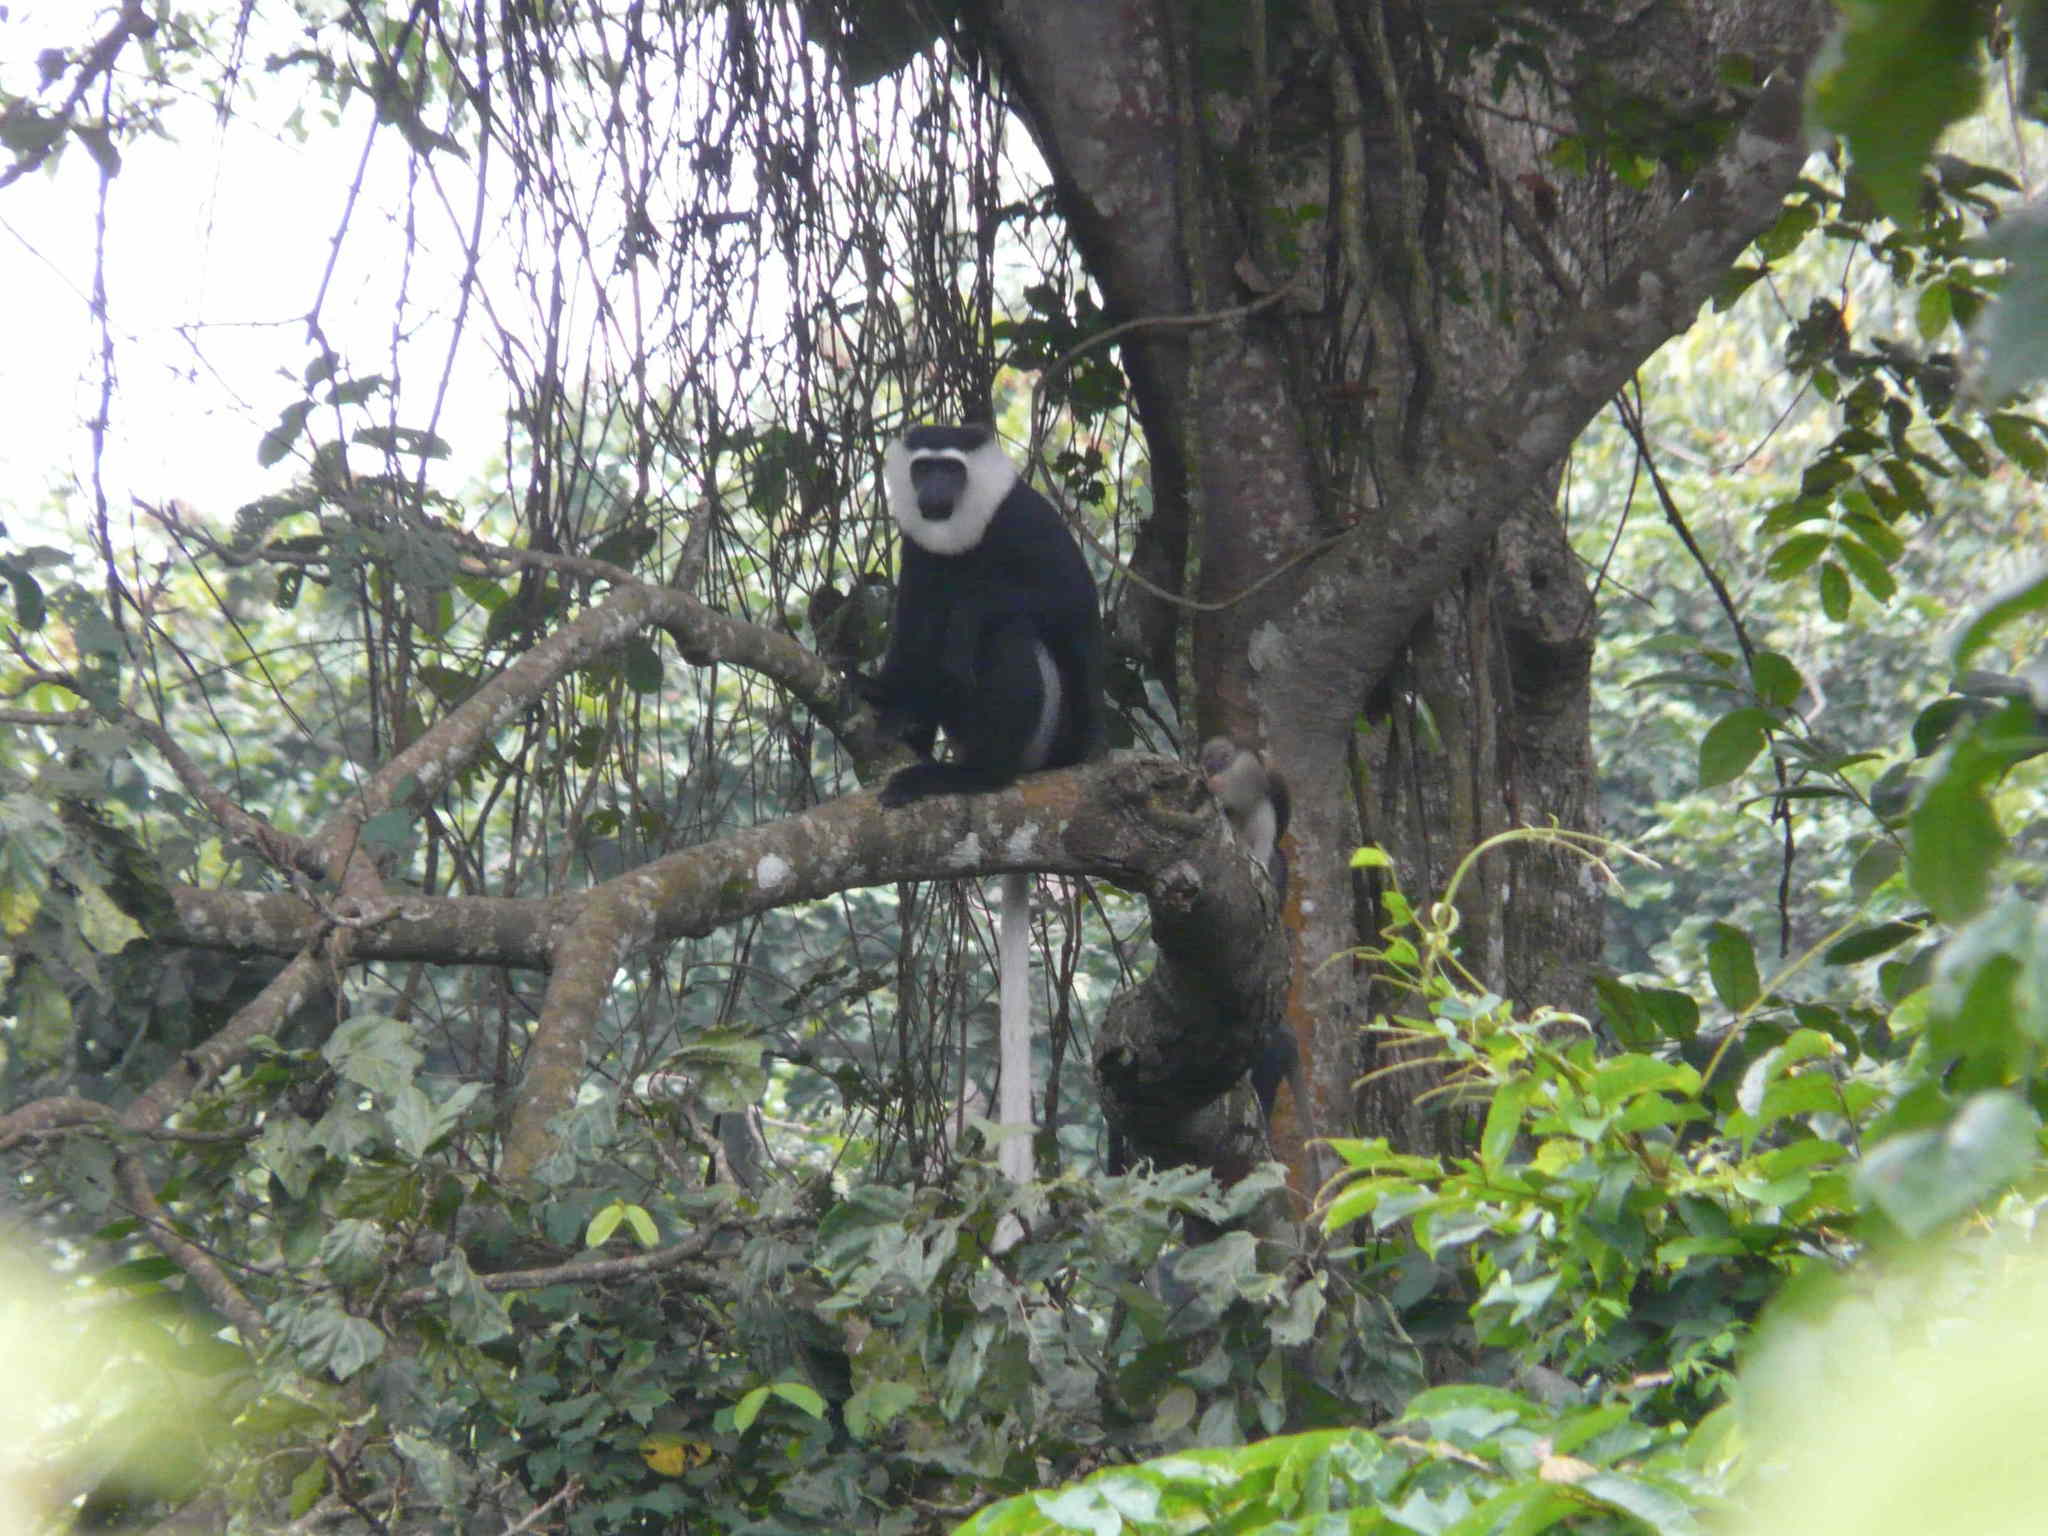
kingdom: Animalia
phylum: Chordata
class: Mammalia
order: Primates
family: Cercopithecidae
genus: Colobus
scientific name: Colobus vellerosus
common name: Ursine colobus
